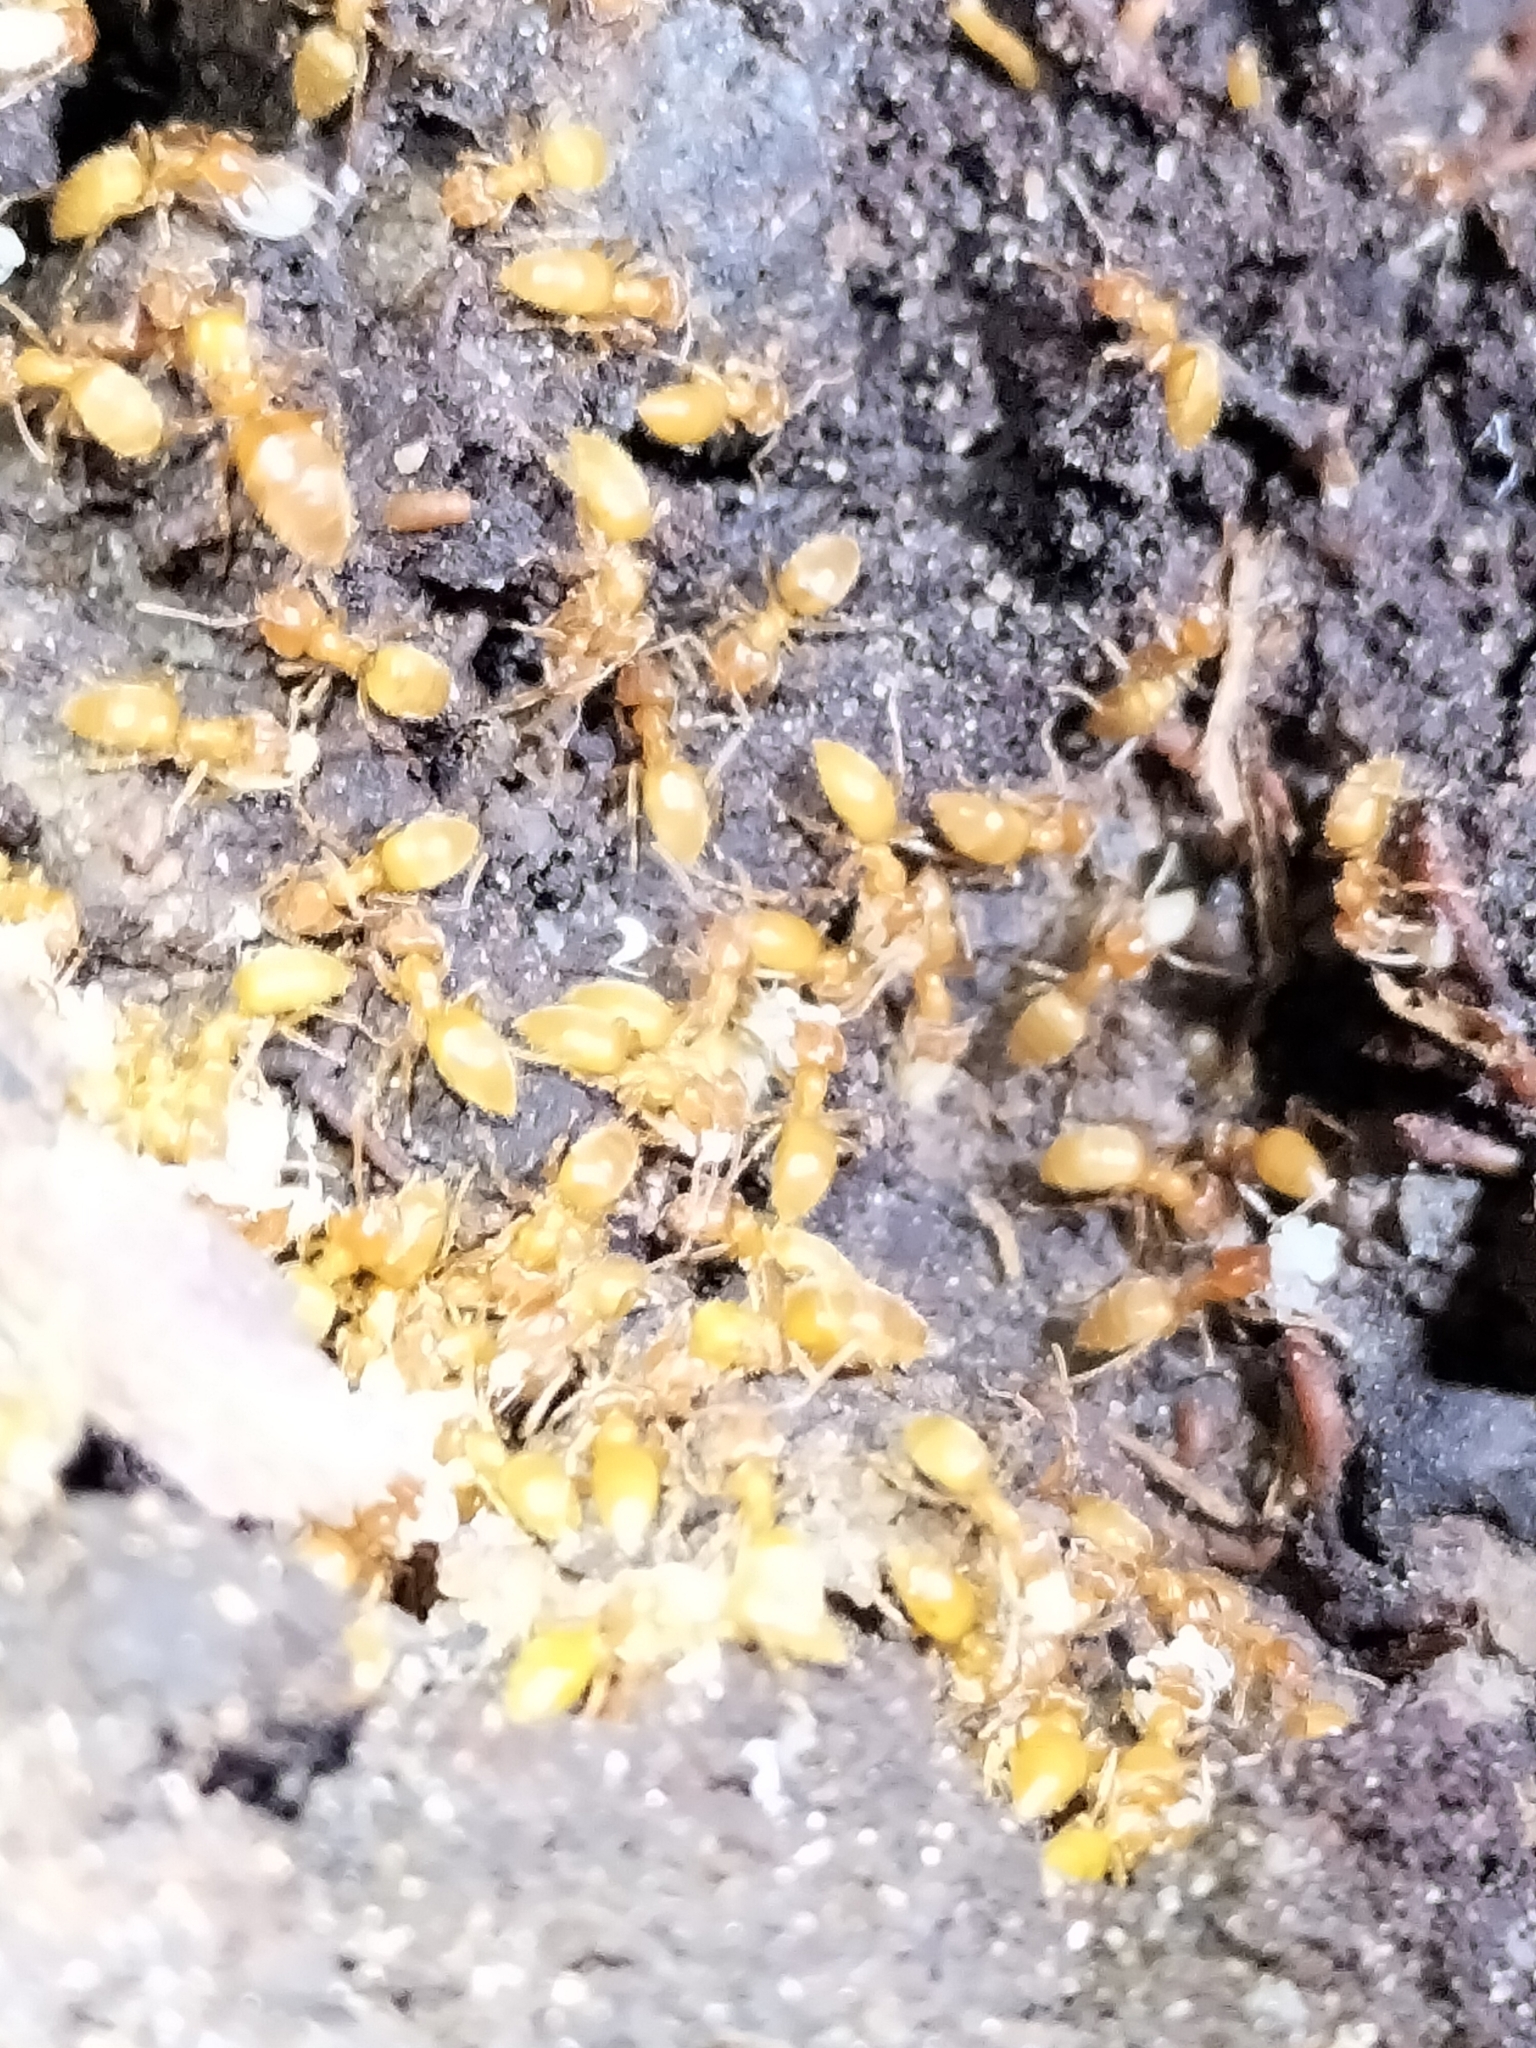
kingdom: Animalia
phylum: Arthropoda
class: Insecta
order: Hymenoptera
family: Formicidae
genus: Acropyga
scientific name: Acropyga acutiventris
